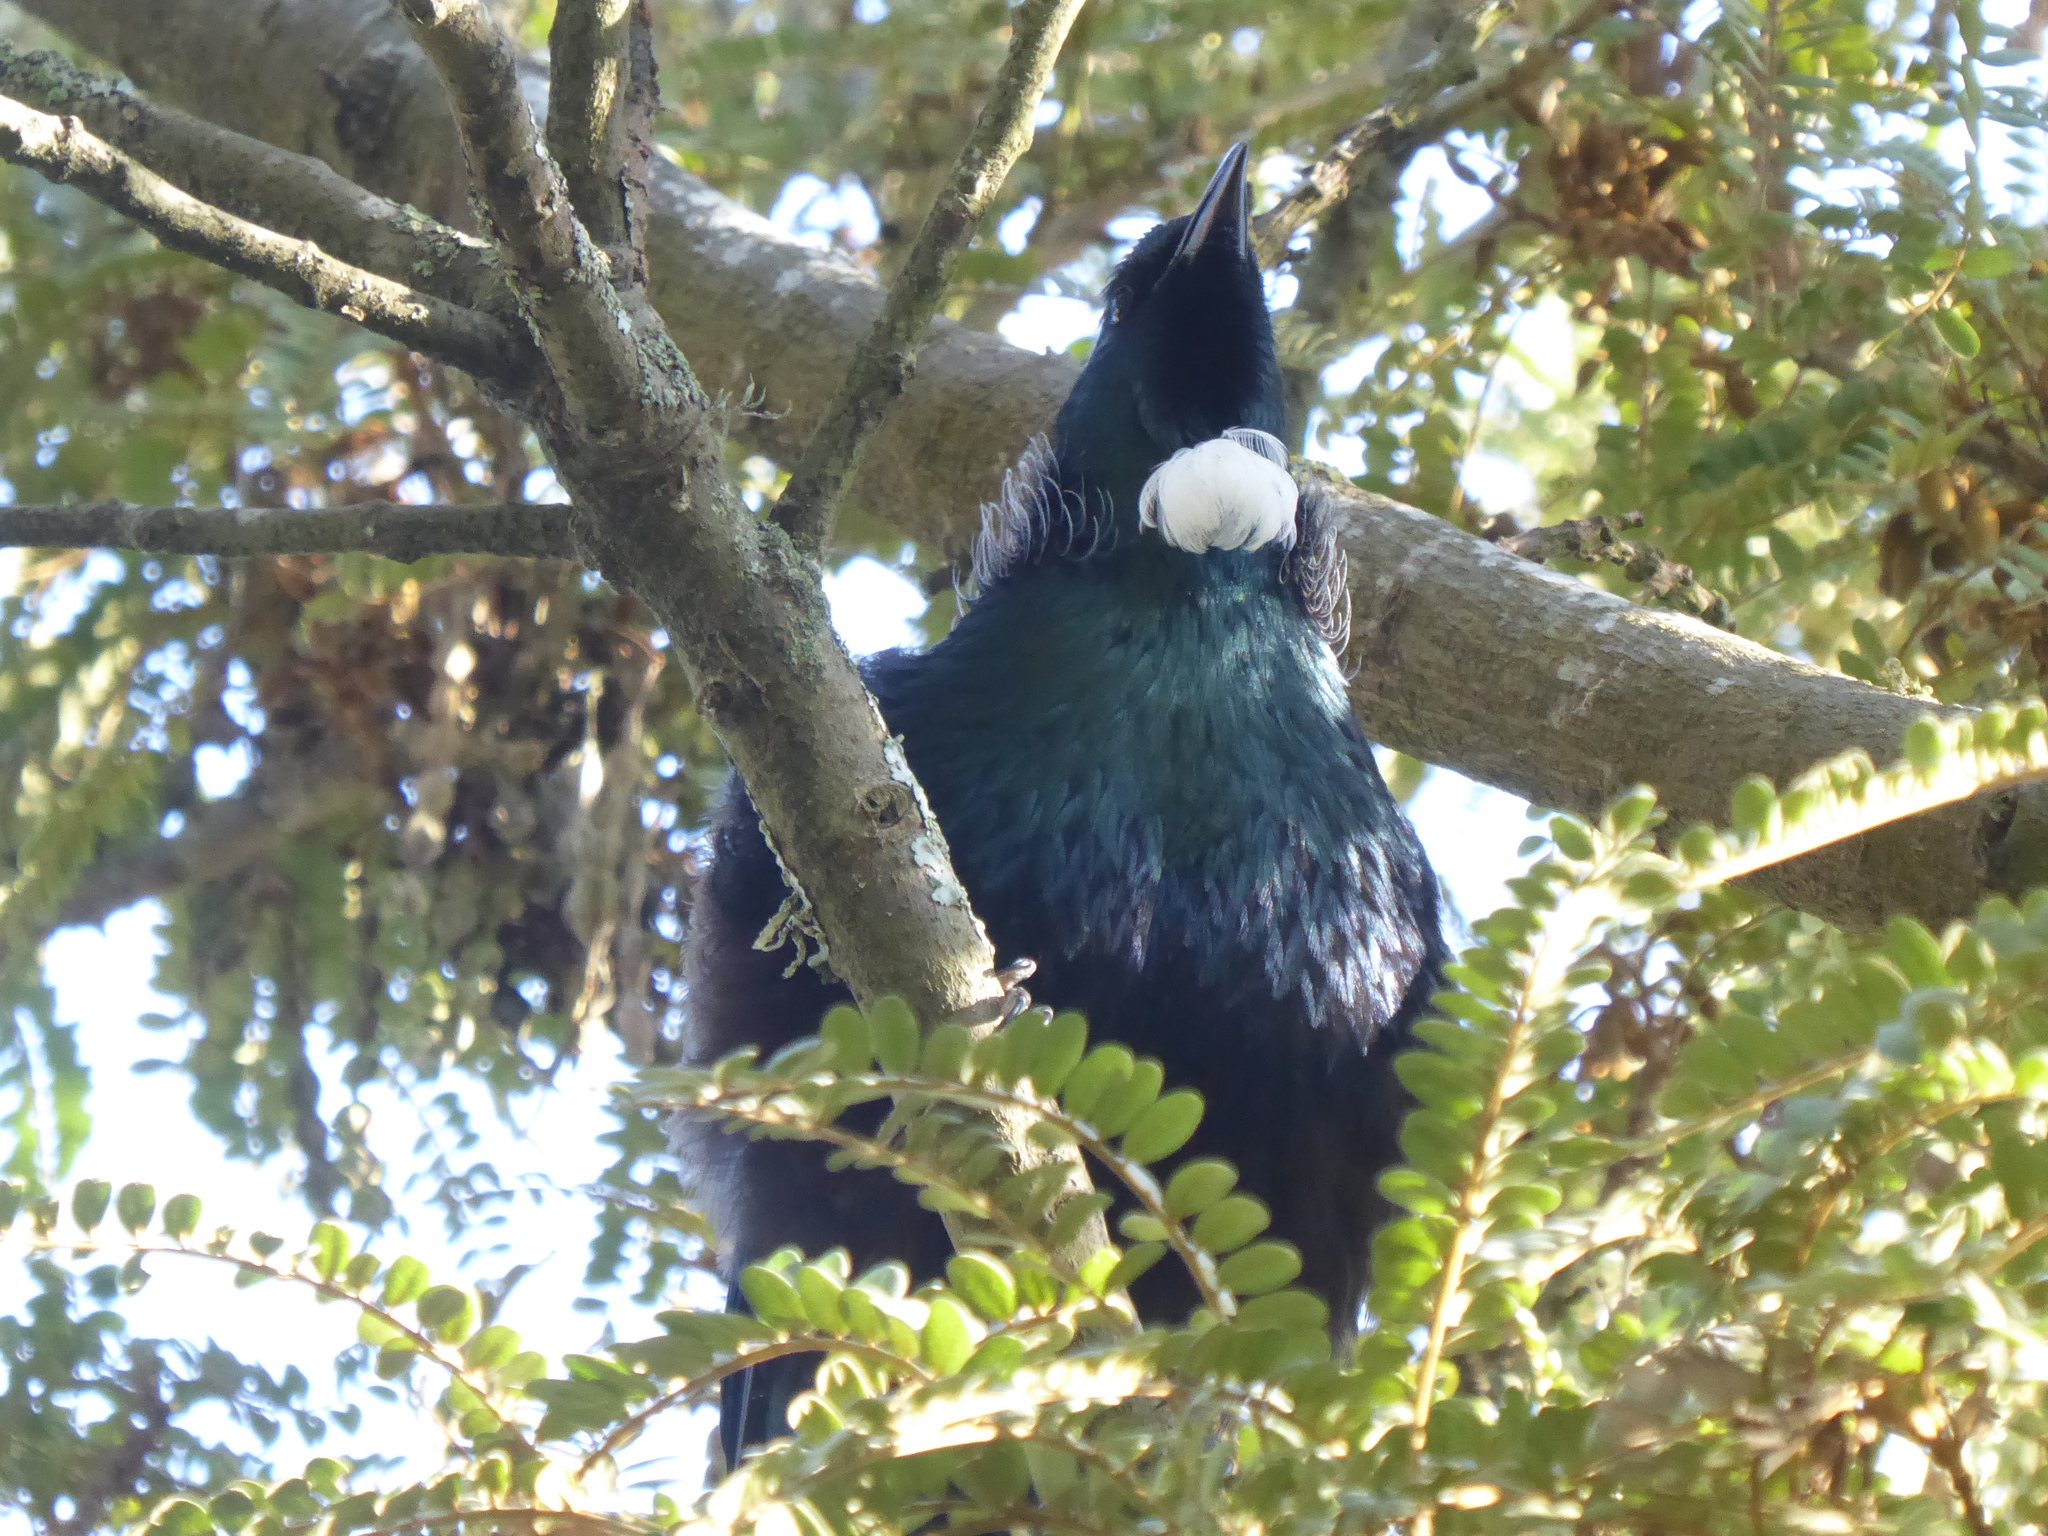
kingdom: Animalia
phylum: Chordata
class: Aves
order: Passeriformes
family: Meliphagidae
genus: Prosthemadera
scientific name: Prosthemadera novaeseelandiae
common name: Tui
